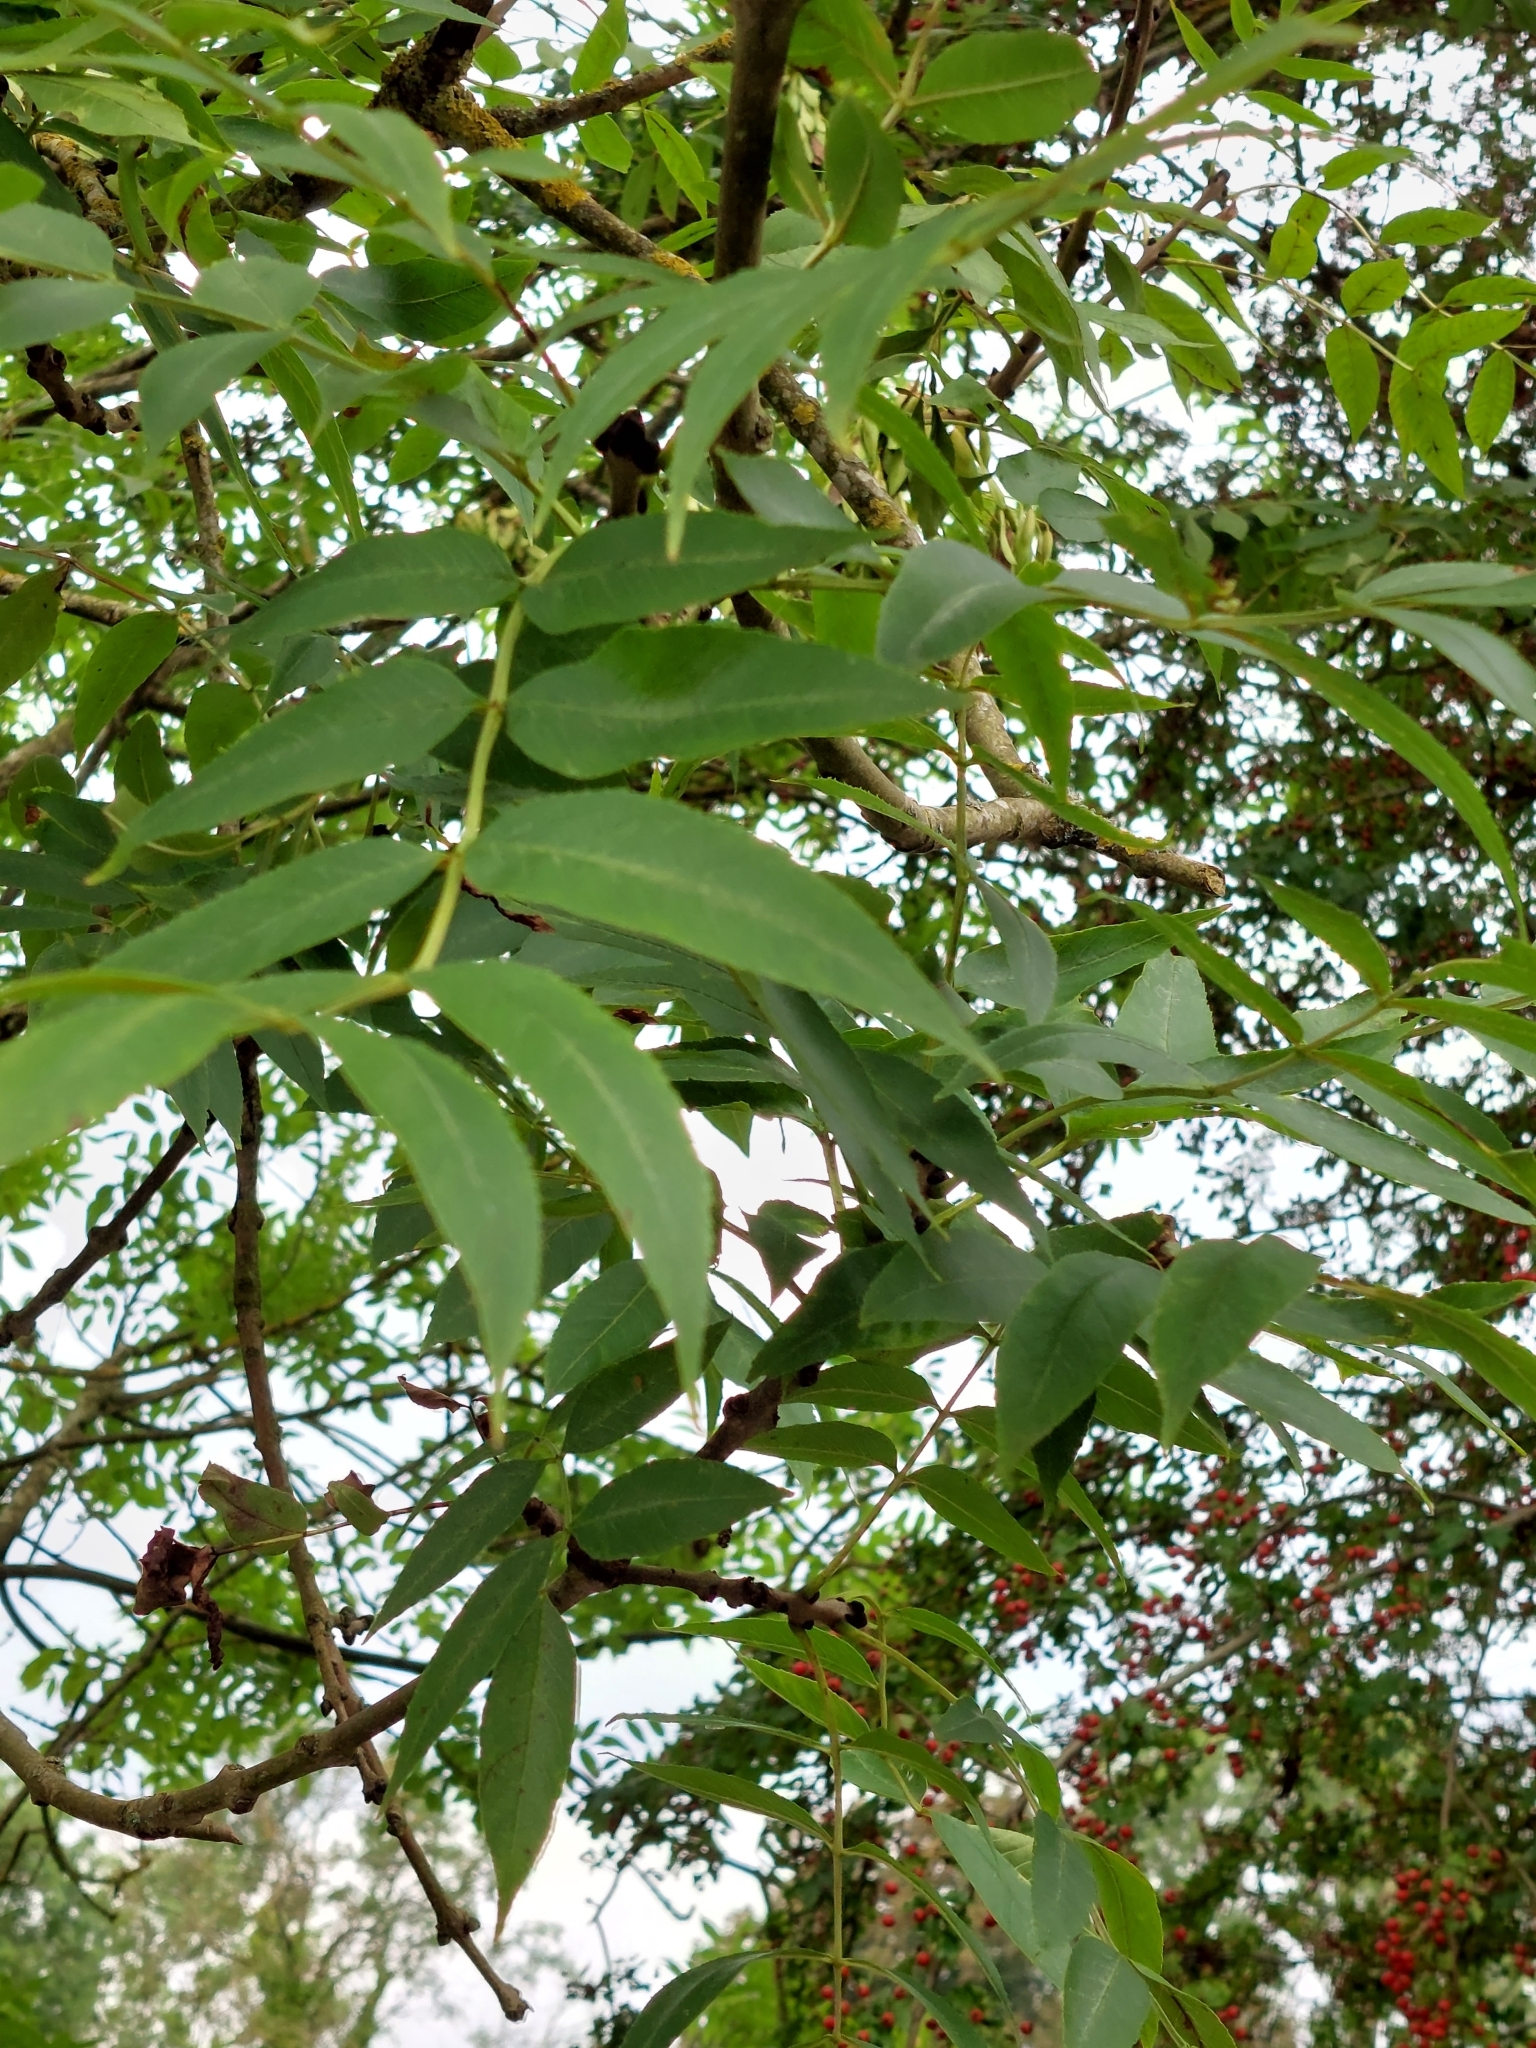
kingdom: Plantae
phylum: Tracheophyta
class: Magnoliopsida
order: Lamiales
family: Oleaceae
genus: Fraxinus
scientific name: Fraxinus excelsior
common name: European ash
